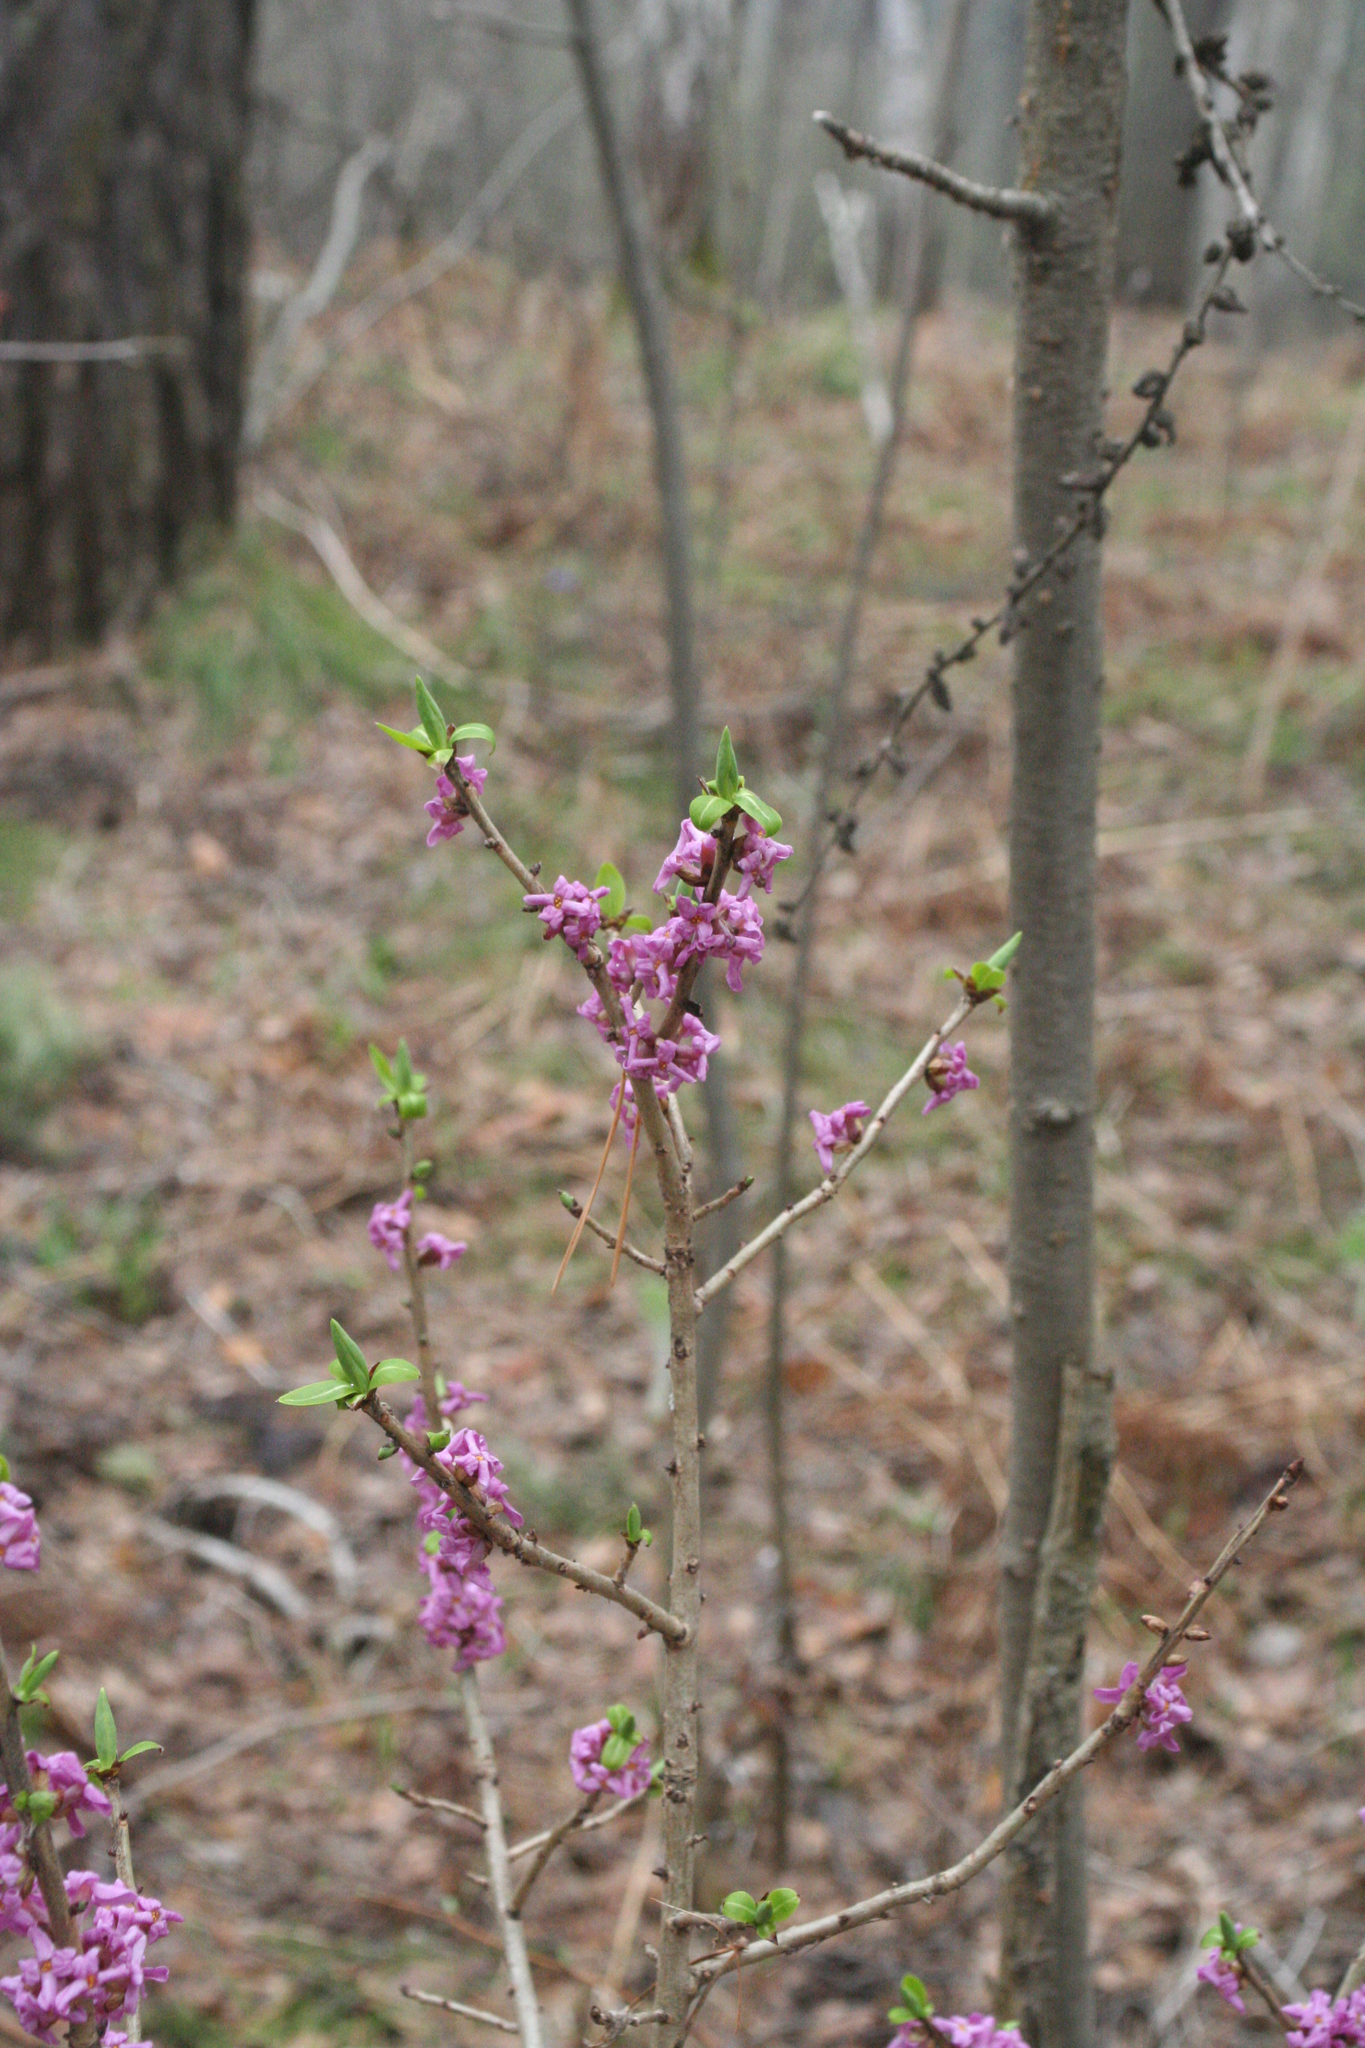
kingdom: Plantae
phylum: Tracheophyta
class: Magnoliopsida
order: Malvales
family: Thymelaeaceae
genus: Daphne
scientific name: Daphne mezereum
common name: Mezereon
